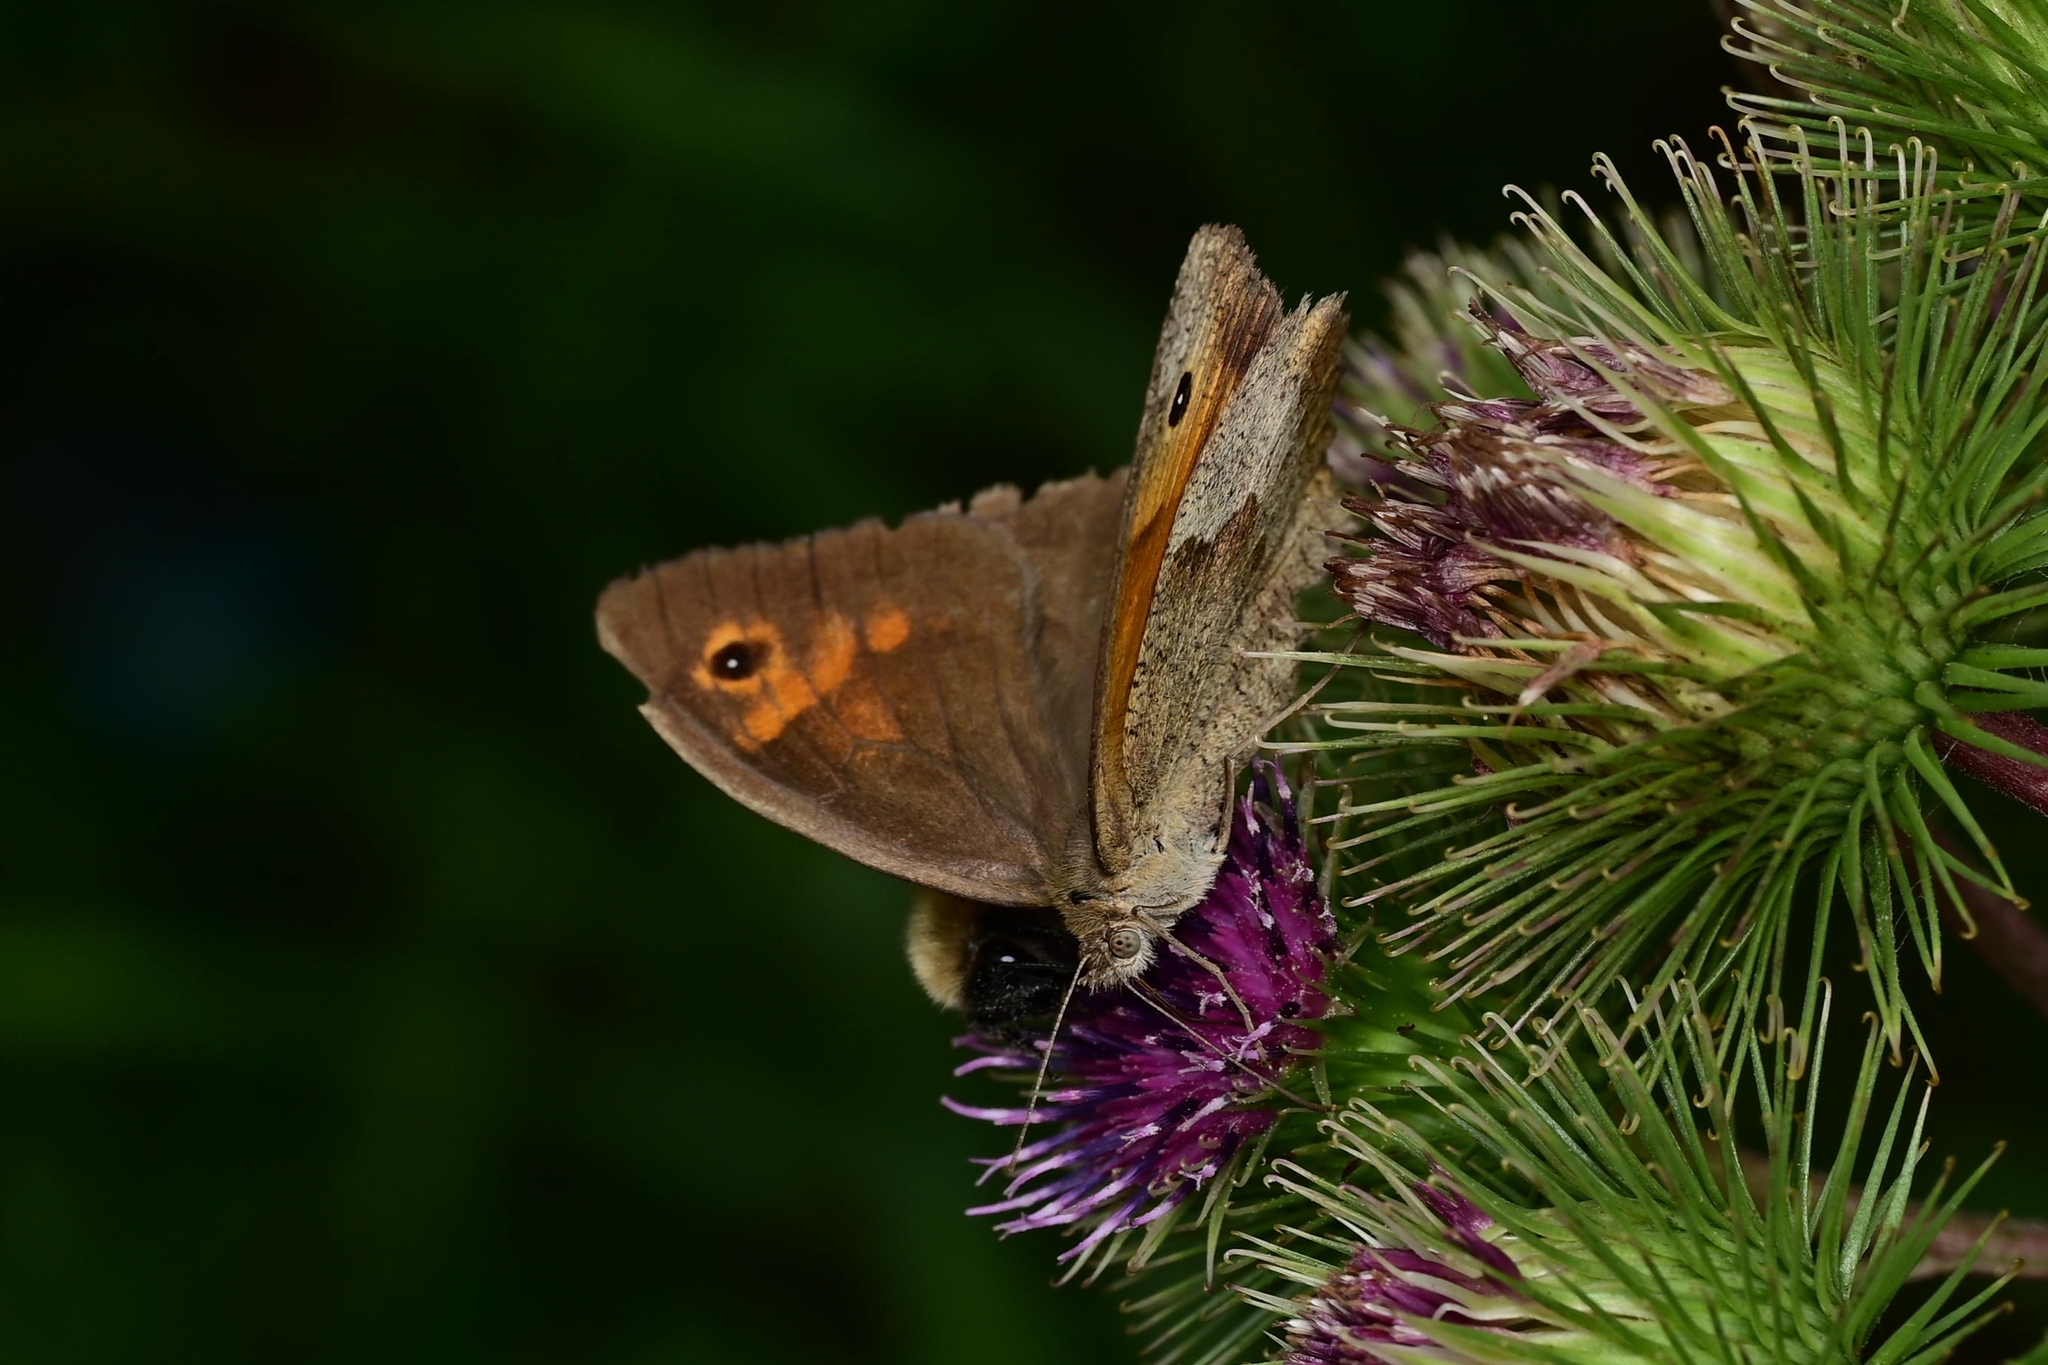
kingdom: Animalia
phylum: Arthropoda
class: Insecta
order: Lepidoptera
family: Nymphalidae
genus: Maniola
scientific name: Maniola jurtina
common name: Meadow brown
